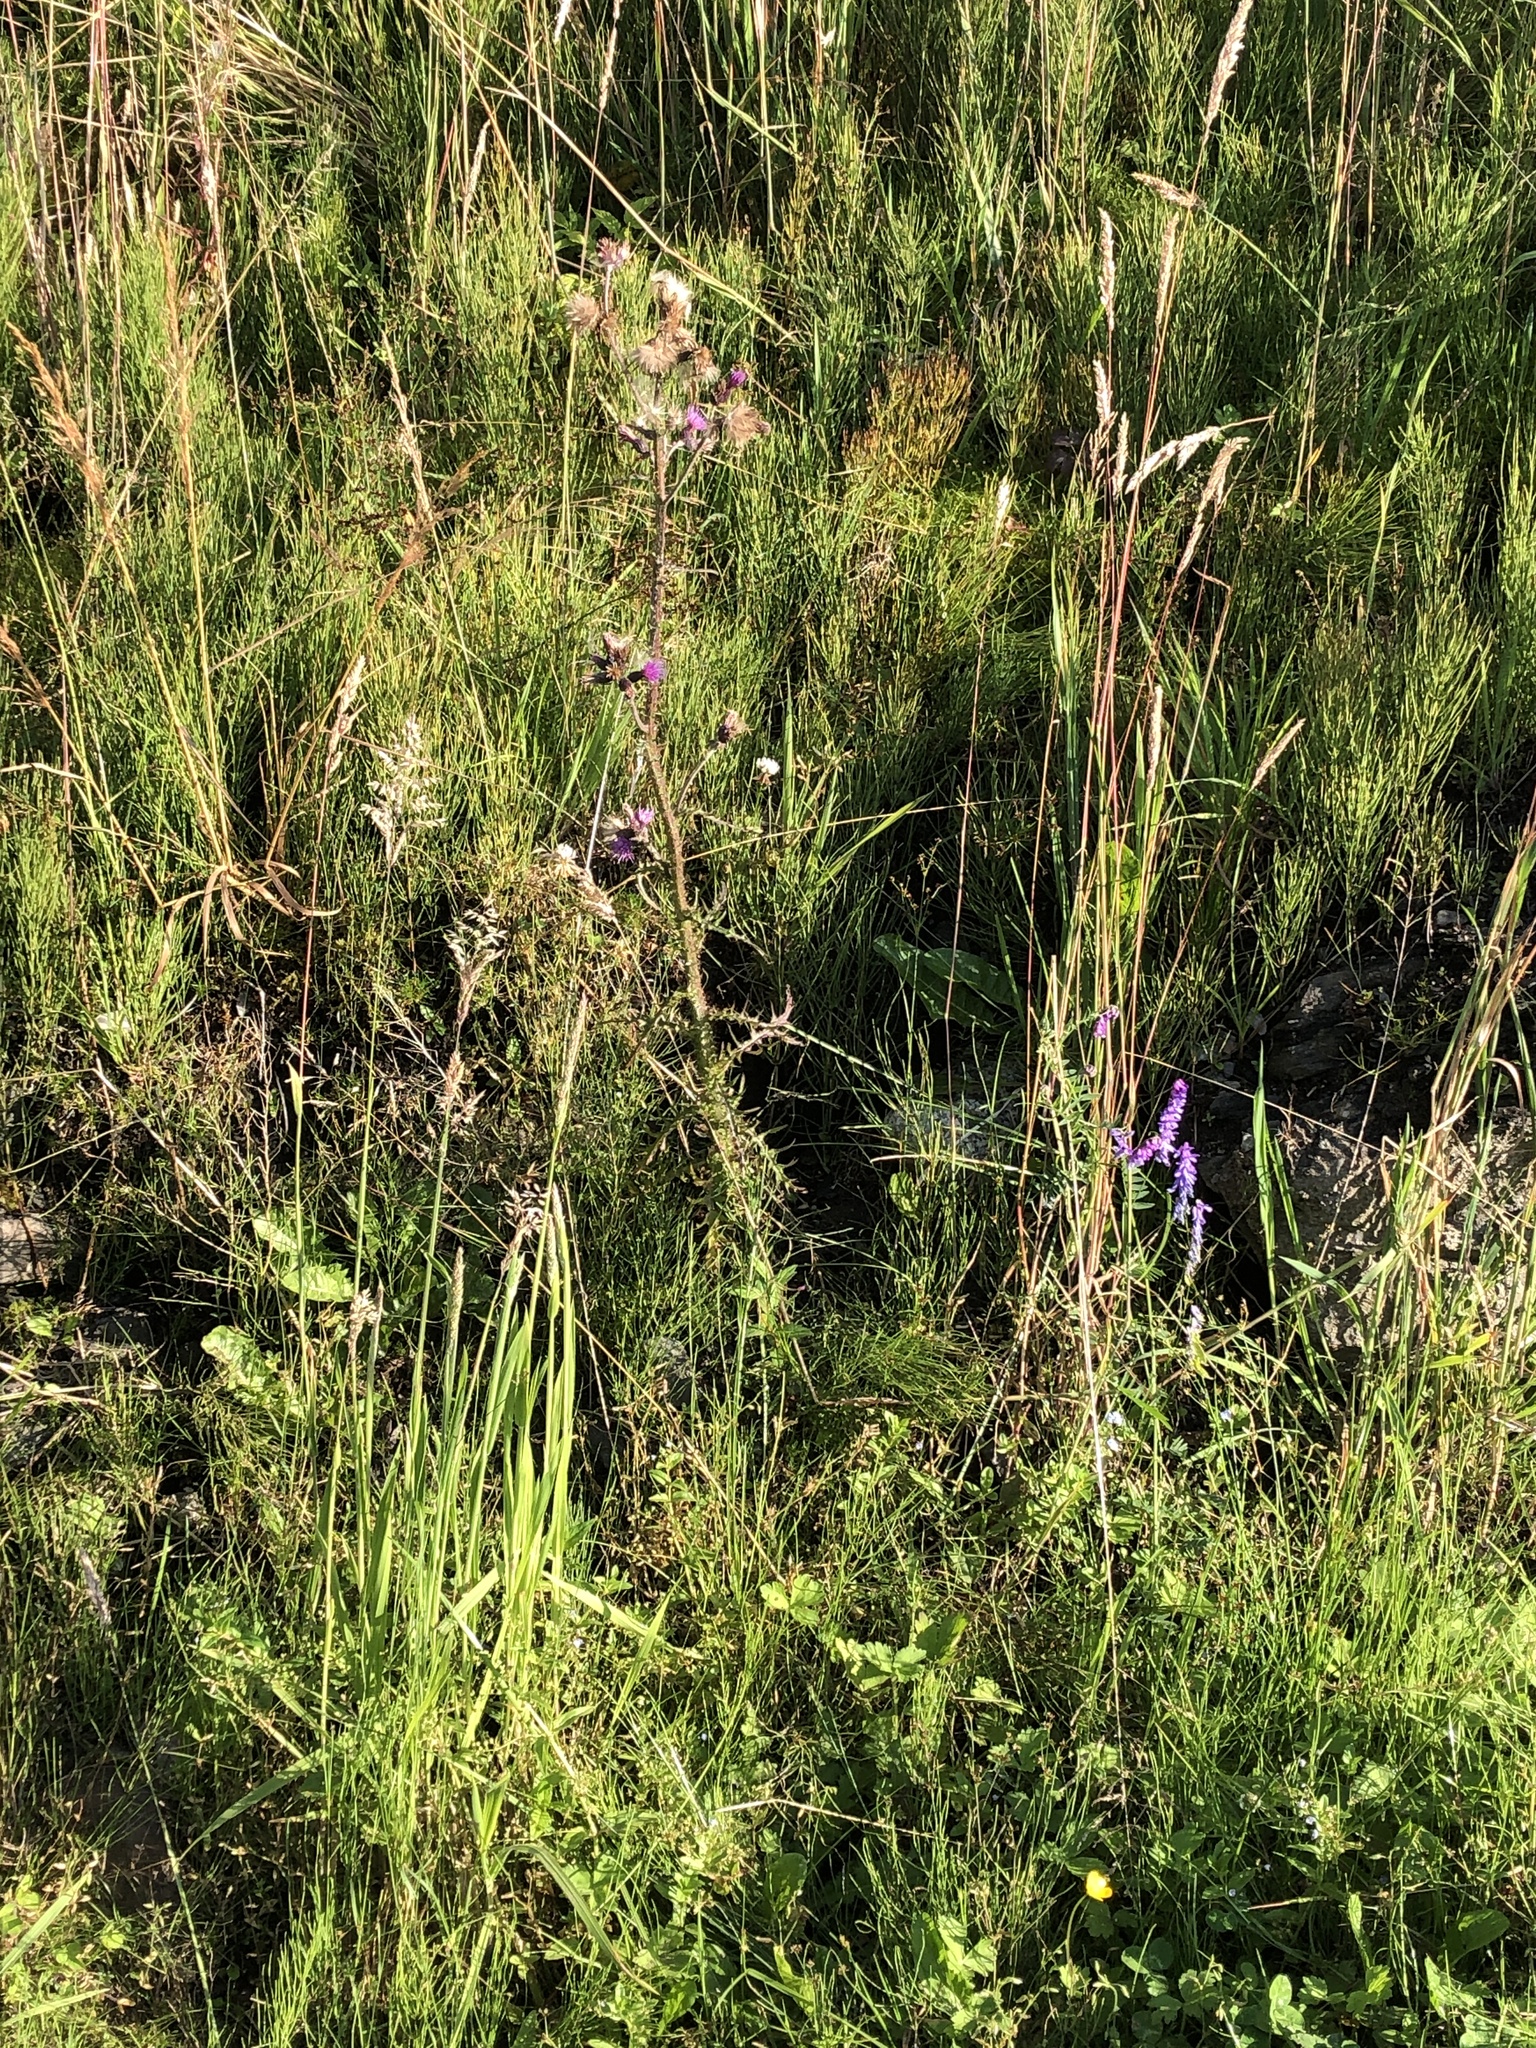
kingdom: Plantae
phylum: Tracheophyta
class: Magnoliopsida
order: Asterales
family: Asteraceae
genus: Cirsium
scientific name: Cirsium palustre
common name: Marsh thistle
